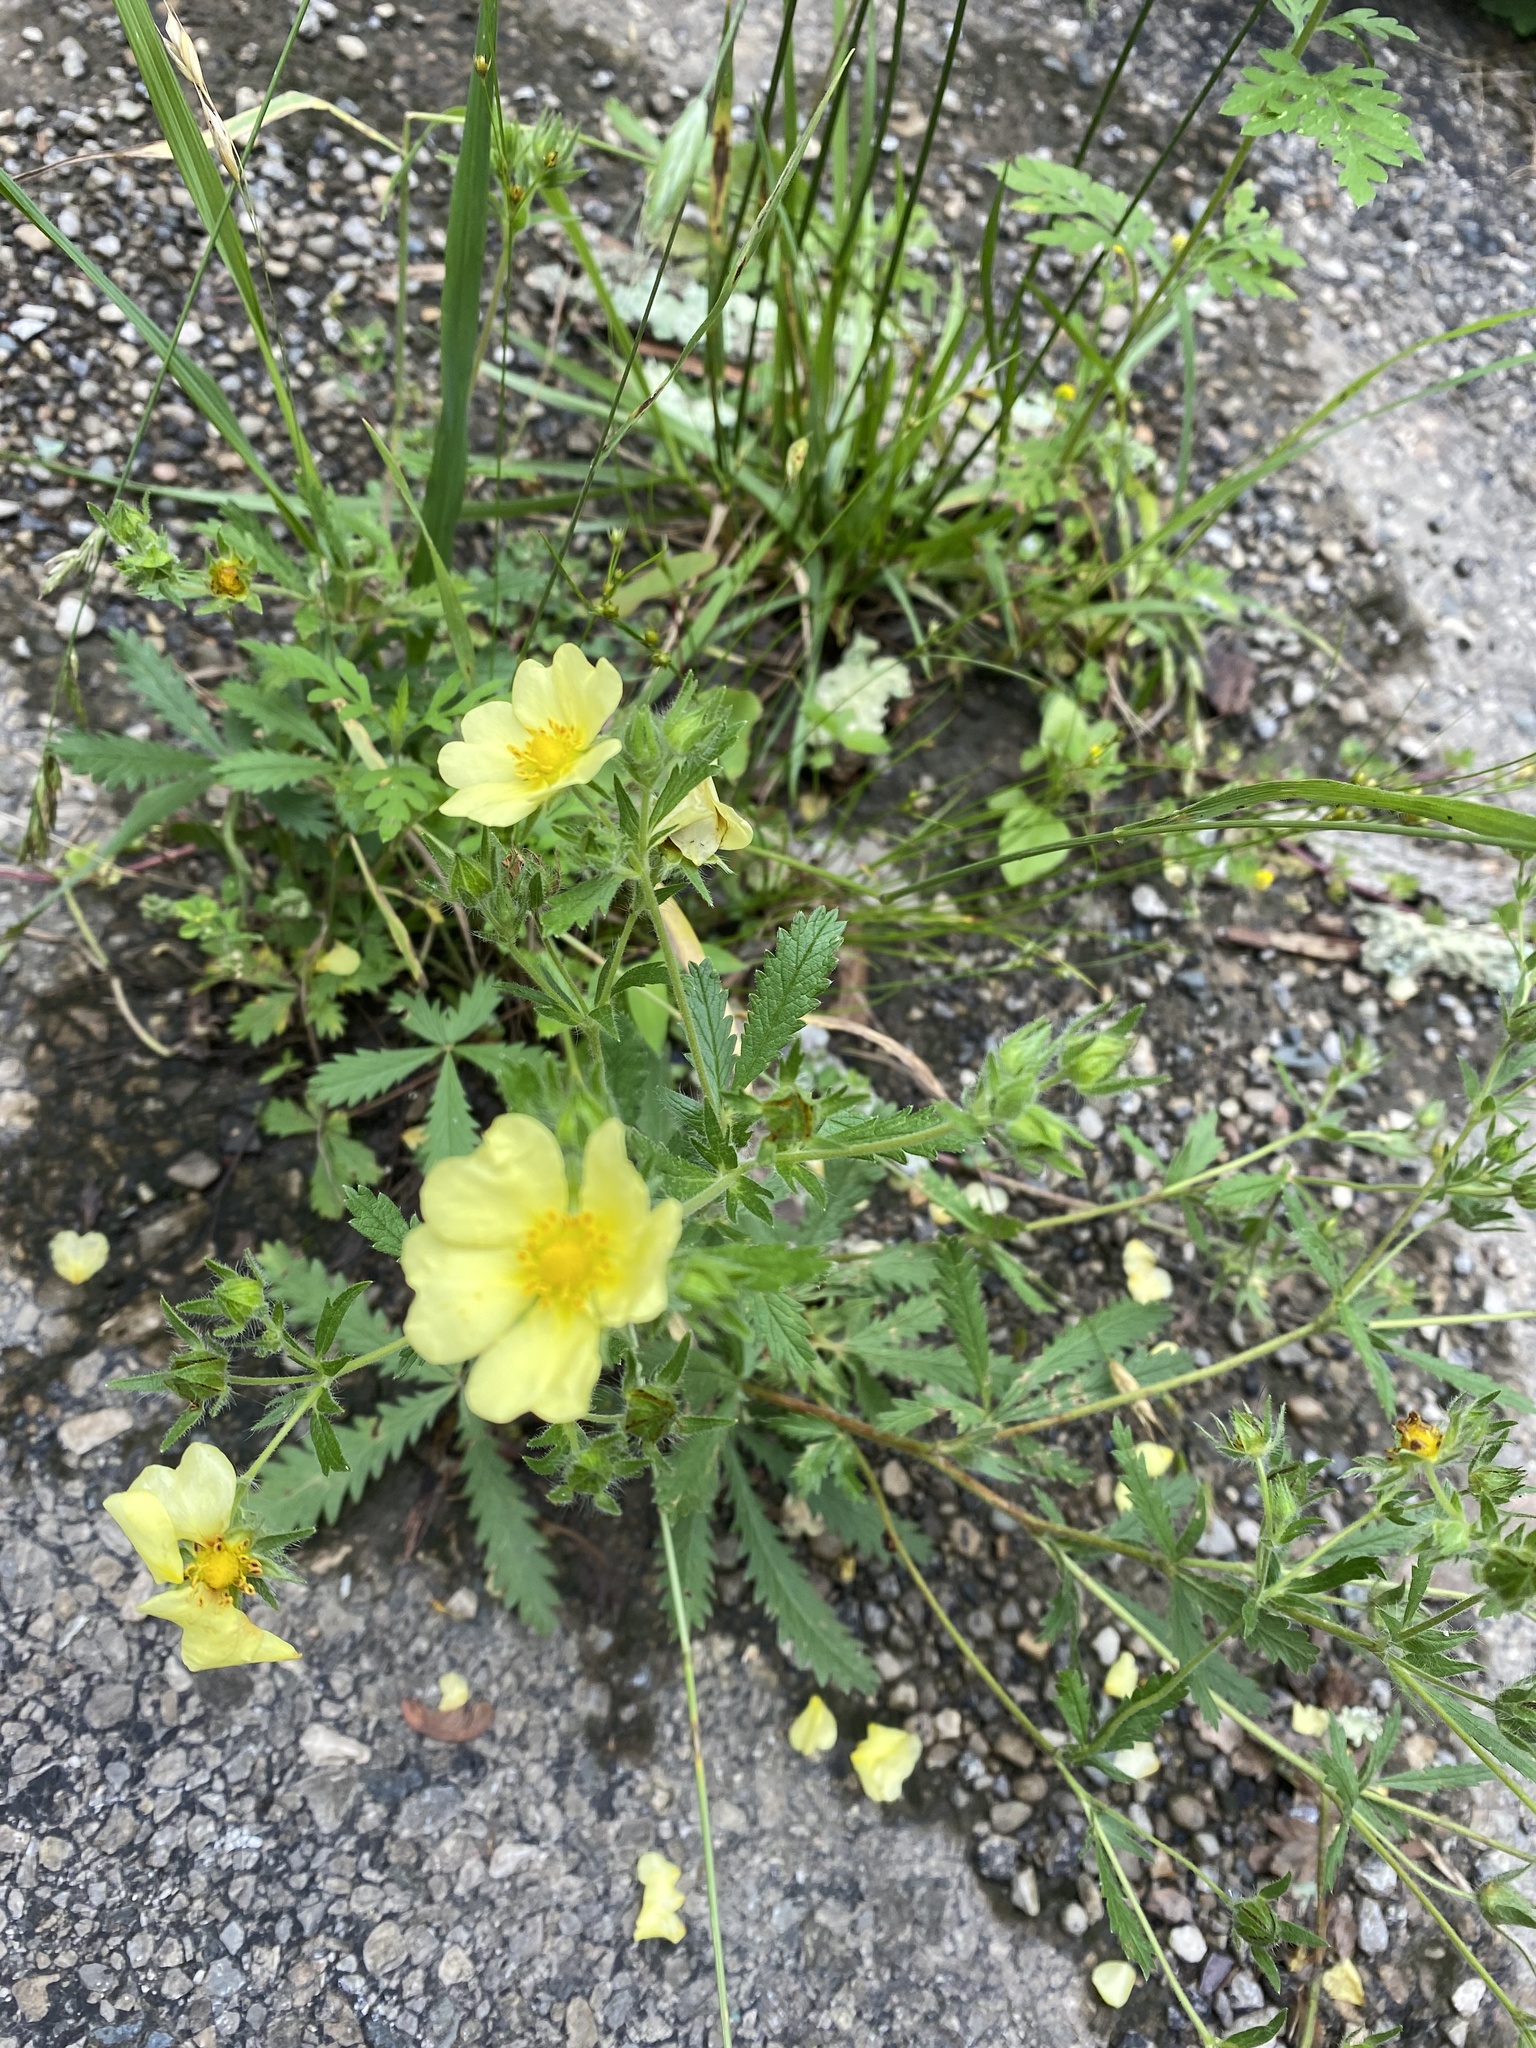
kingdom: Plantae
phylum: Tracheophyta
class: Magnoliopsida
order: Rosales
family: Rosaceae
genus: Potentilla
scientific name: Potentilla recta
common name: Sulphur cinquefoil
